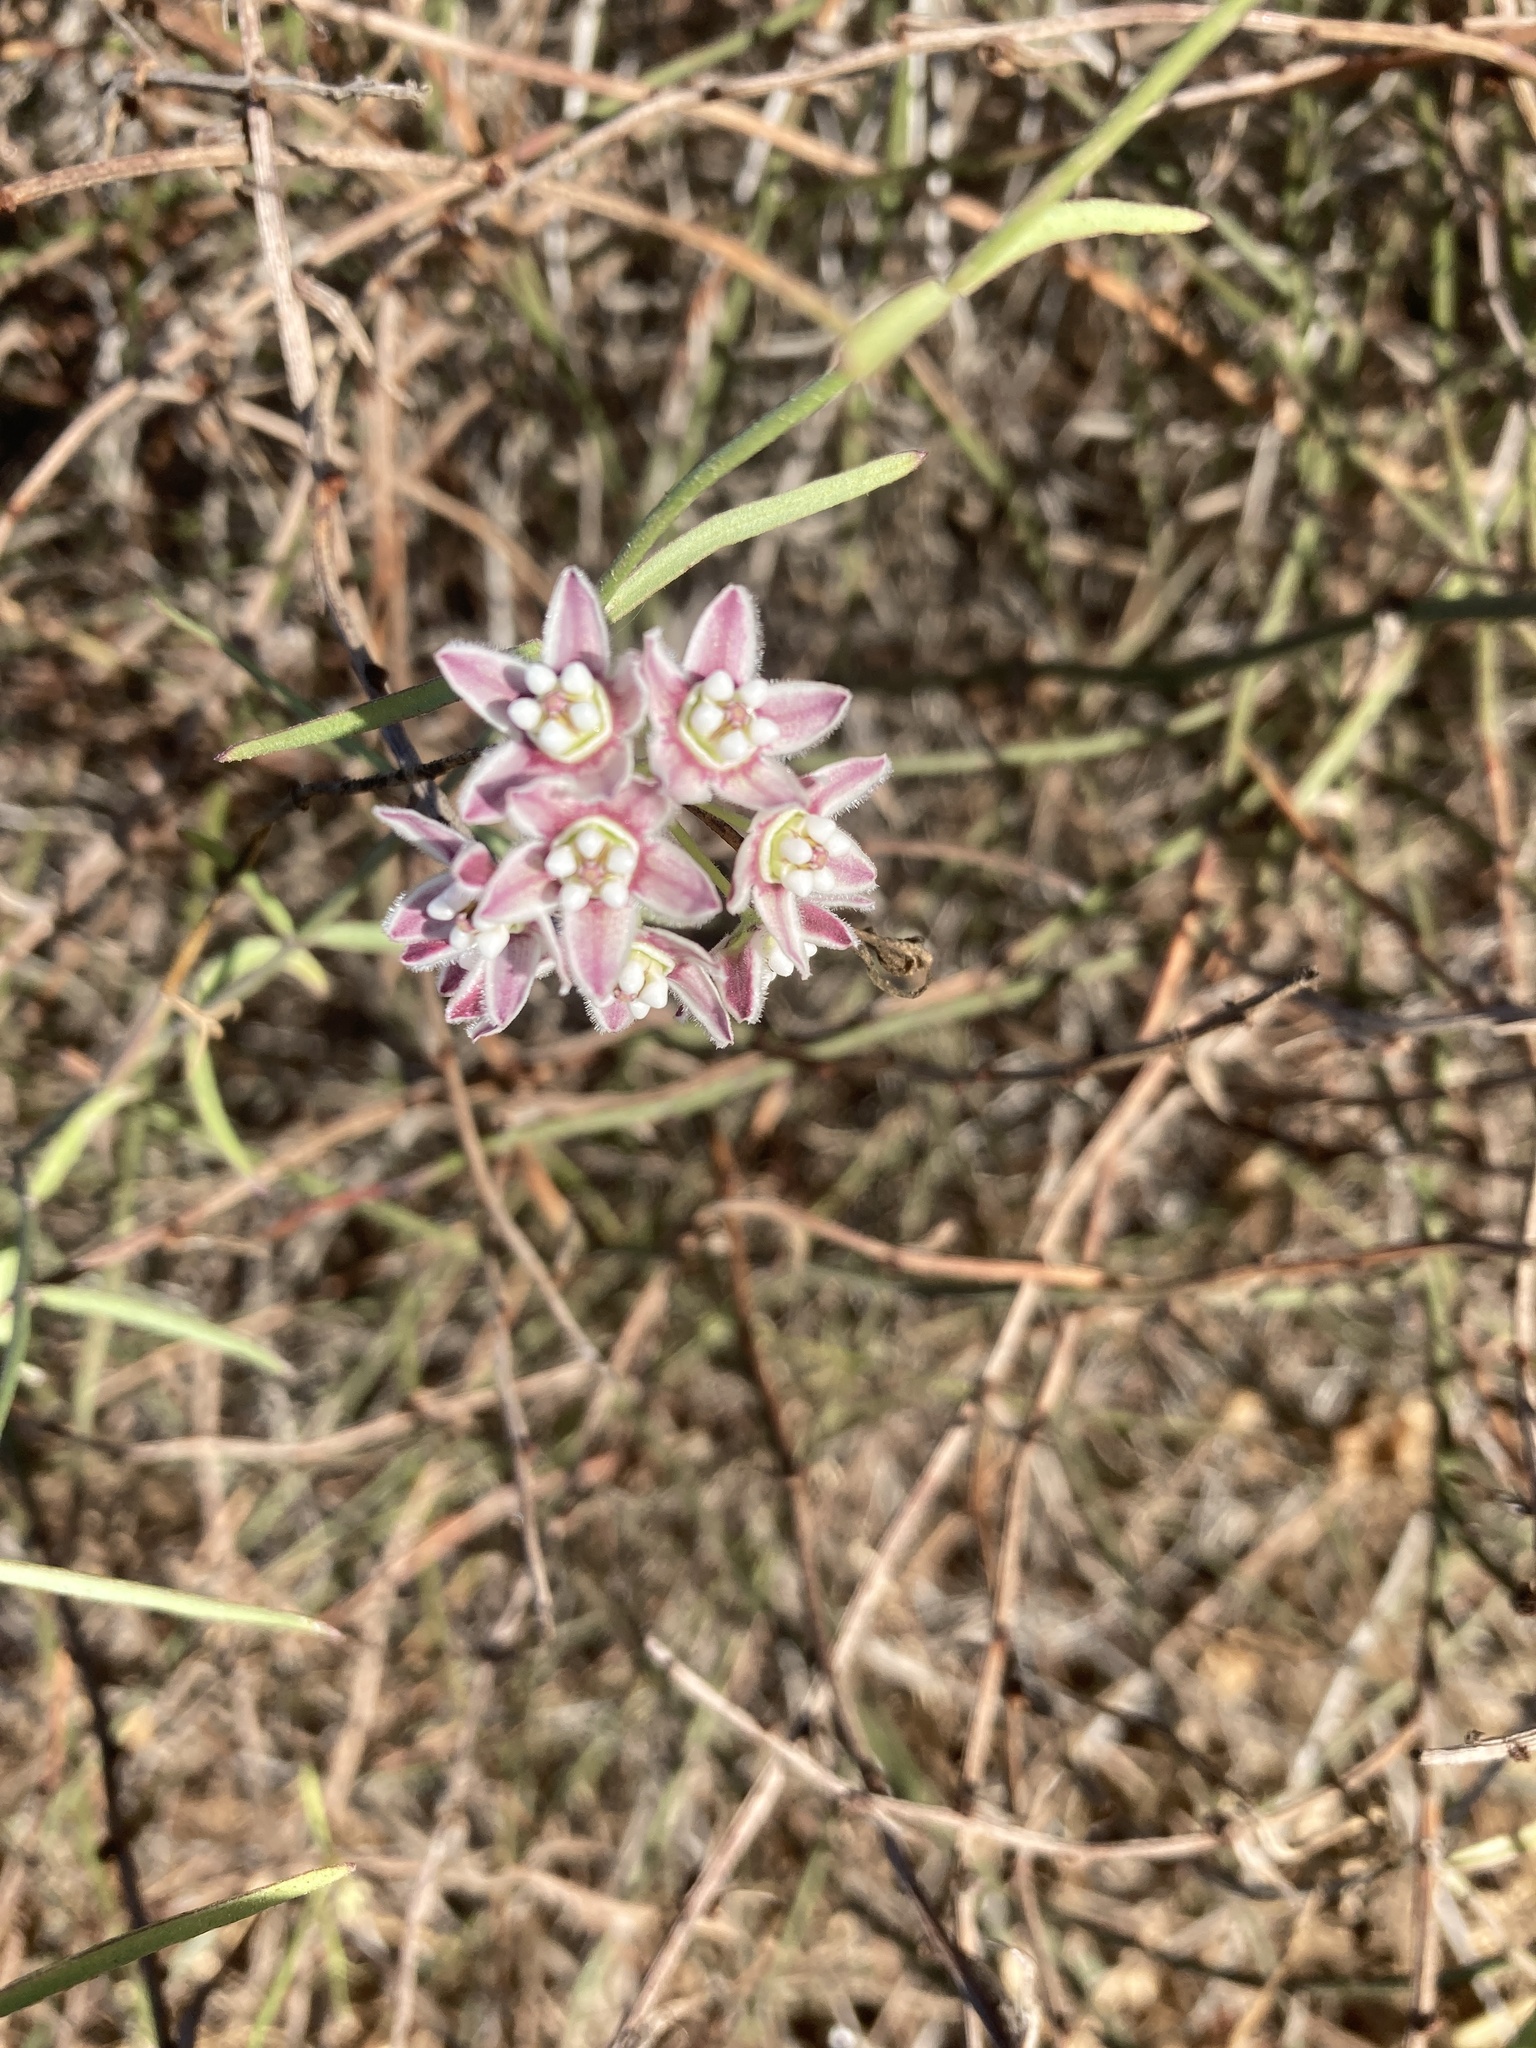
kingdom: Plantae
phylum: Tracheophyta
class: Magnoliopsida
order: Gentianales
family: Apocynaceae
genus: Funastrum
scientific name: Funastrum heterophyllum
